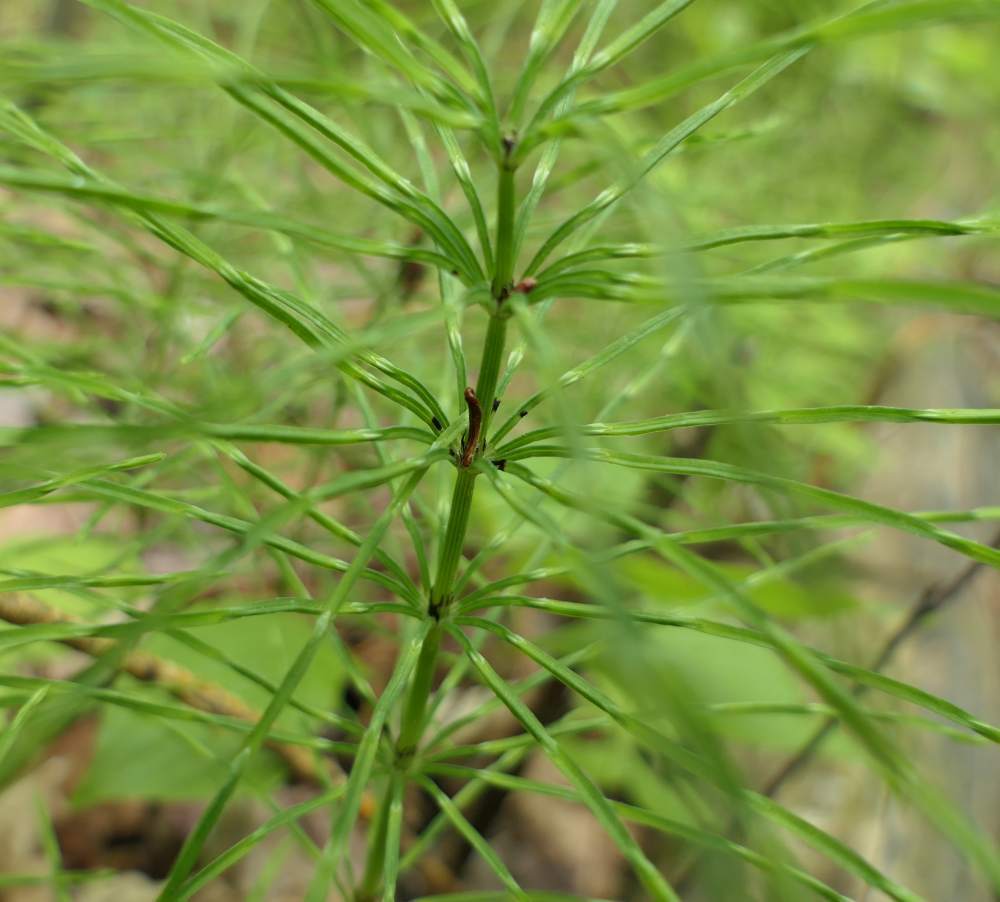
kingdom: Plantae
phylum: Tracheophyta
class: Polypodiopsida
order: Equisetales
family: Equisetaceae
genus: Equisetum
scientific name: Equisetum arvense
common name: Field horsetail
